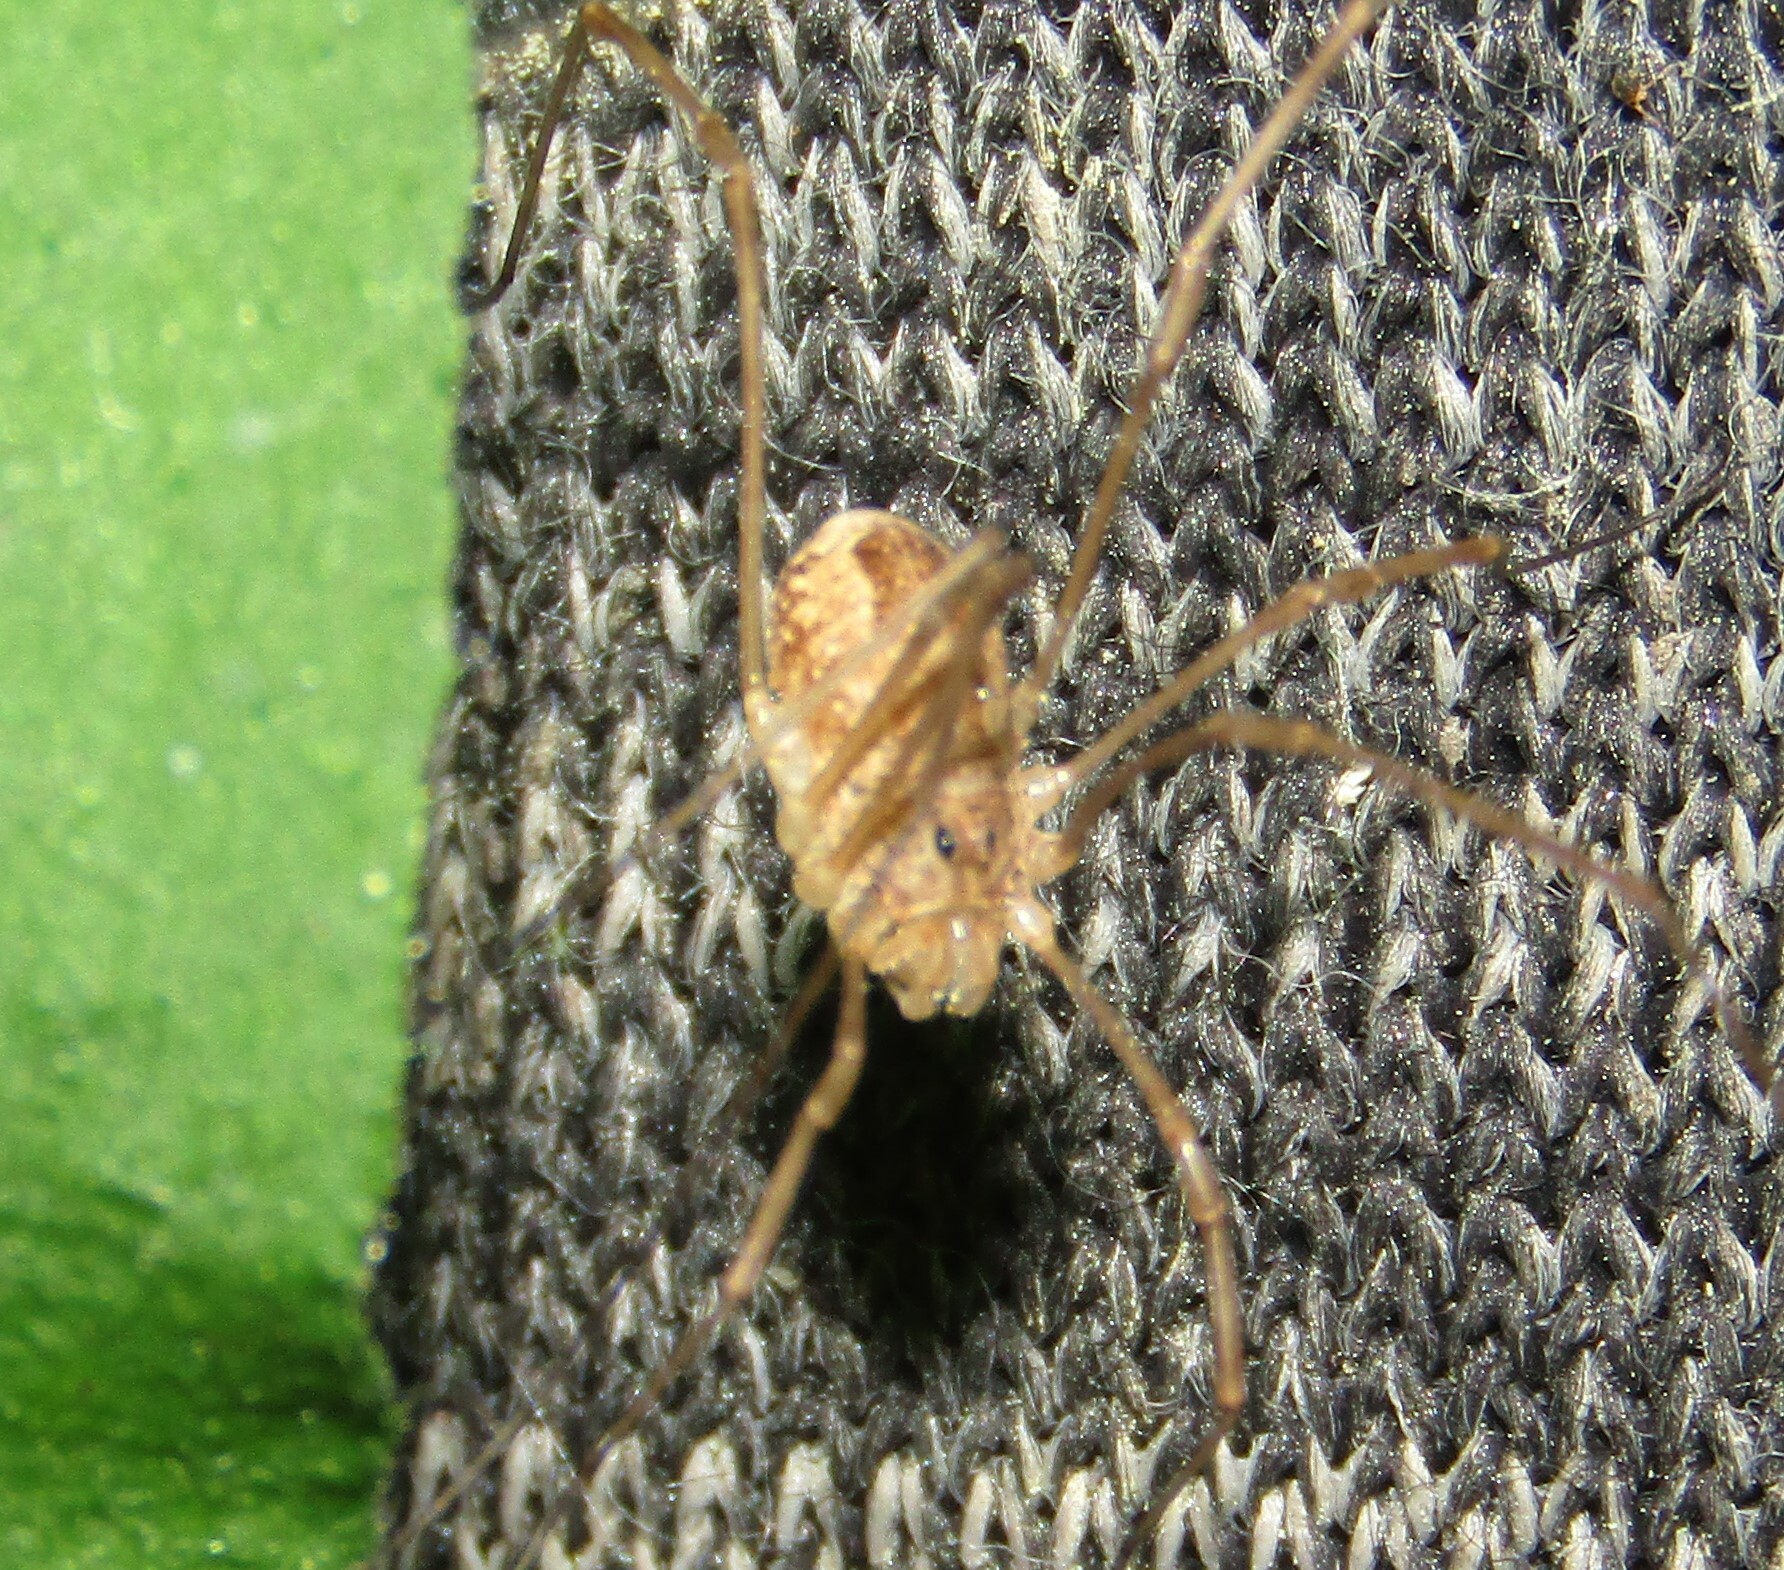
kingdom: Animalia
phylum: Arthropoda
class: Arachnida
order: Opiliones
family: Phalangiidae
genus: Rilaena
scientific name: Rilaena triangularis
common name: Spring harvestman
